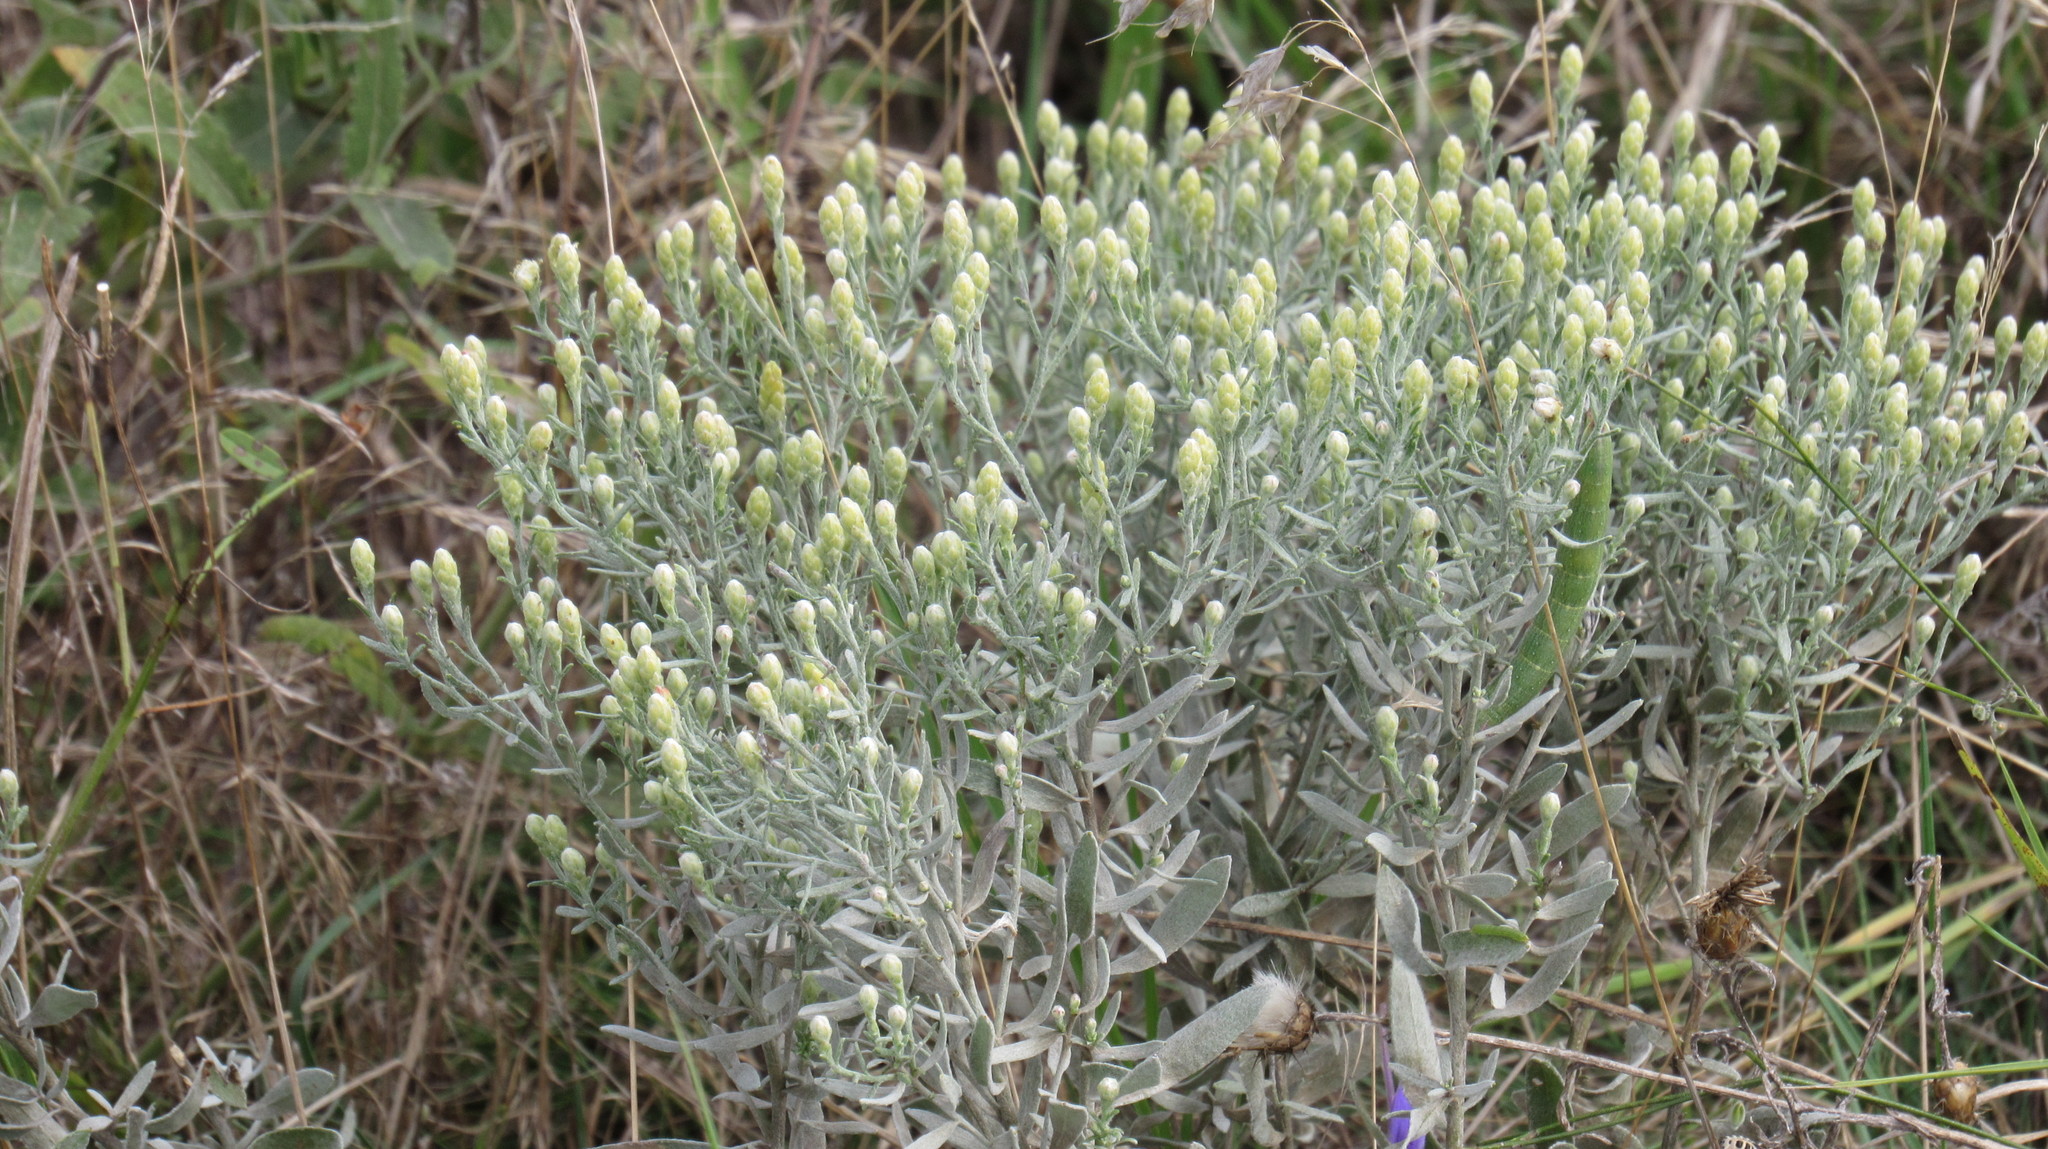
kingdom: Plantae
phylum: Tracheophyta
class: Magnoliopsida
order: Asterales
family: Asteraceae
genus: Galatella
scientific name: Galatella villosa
